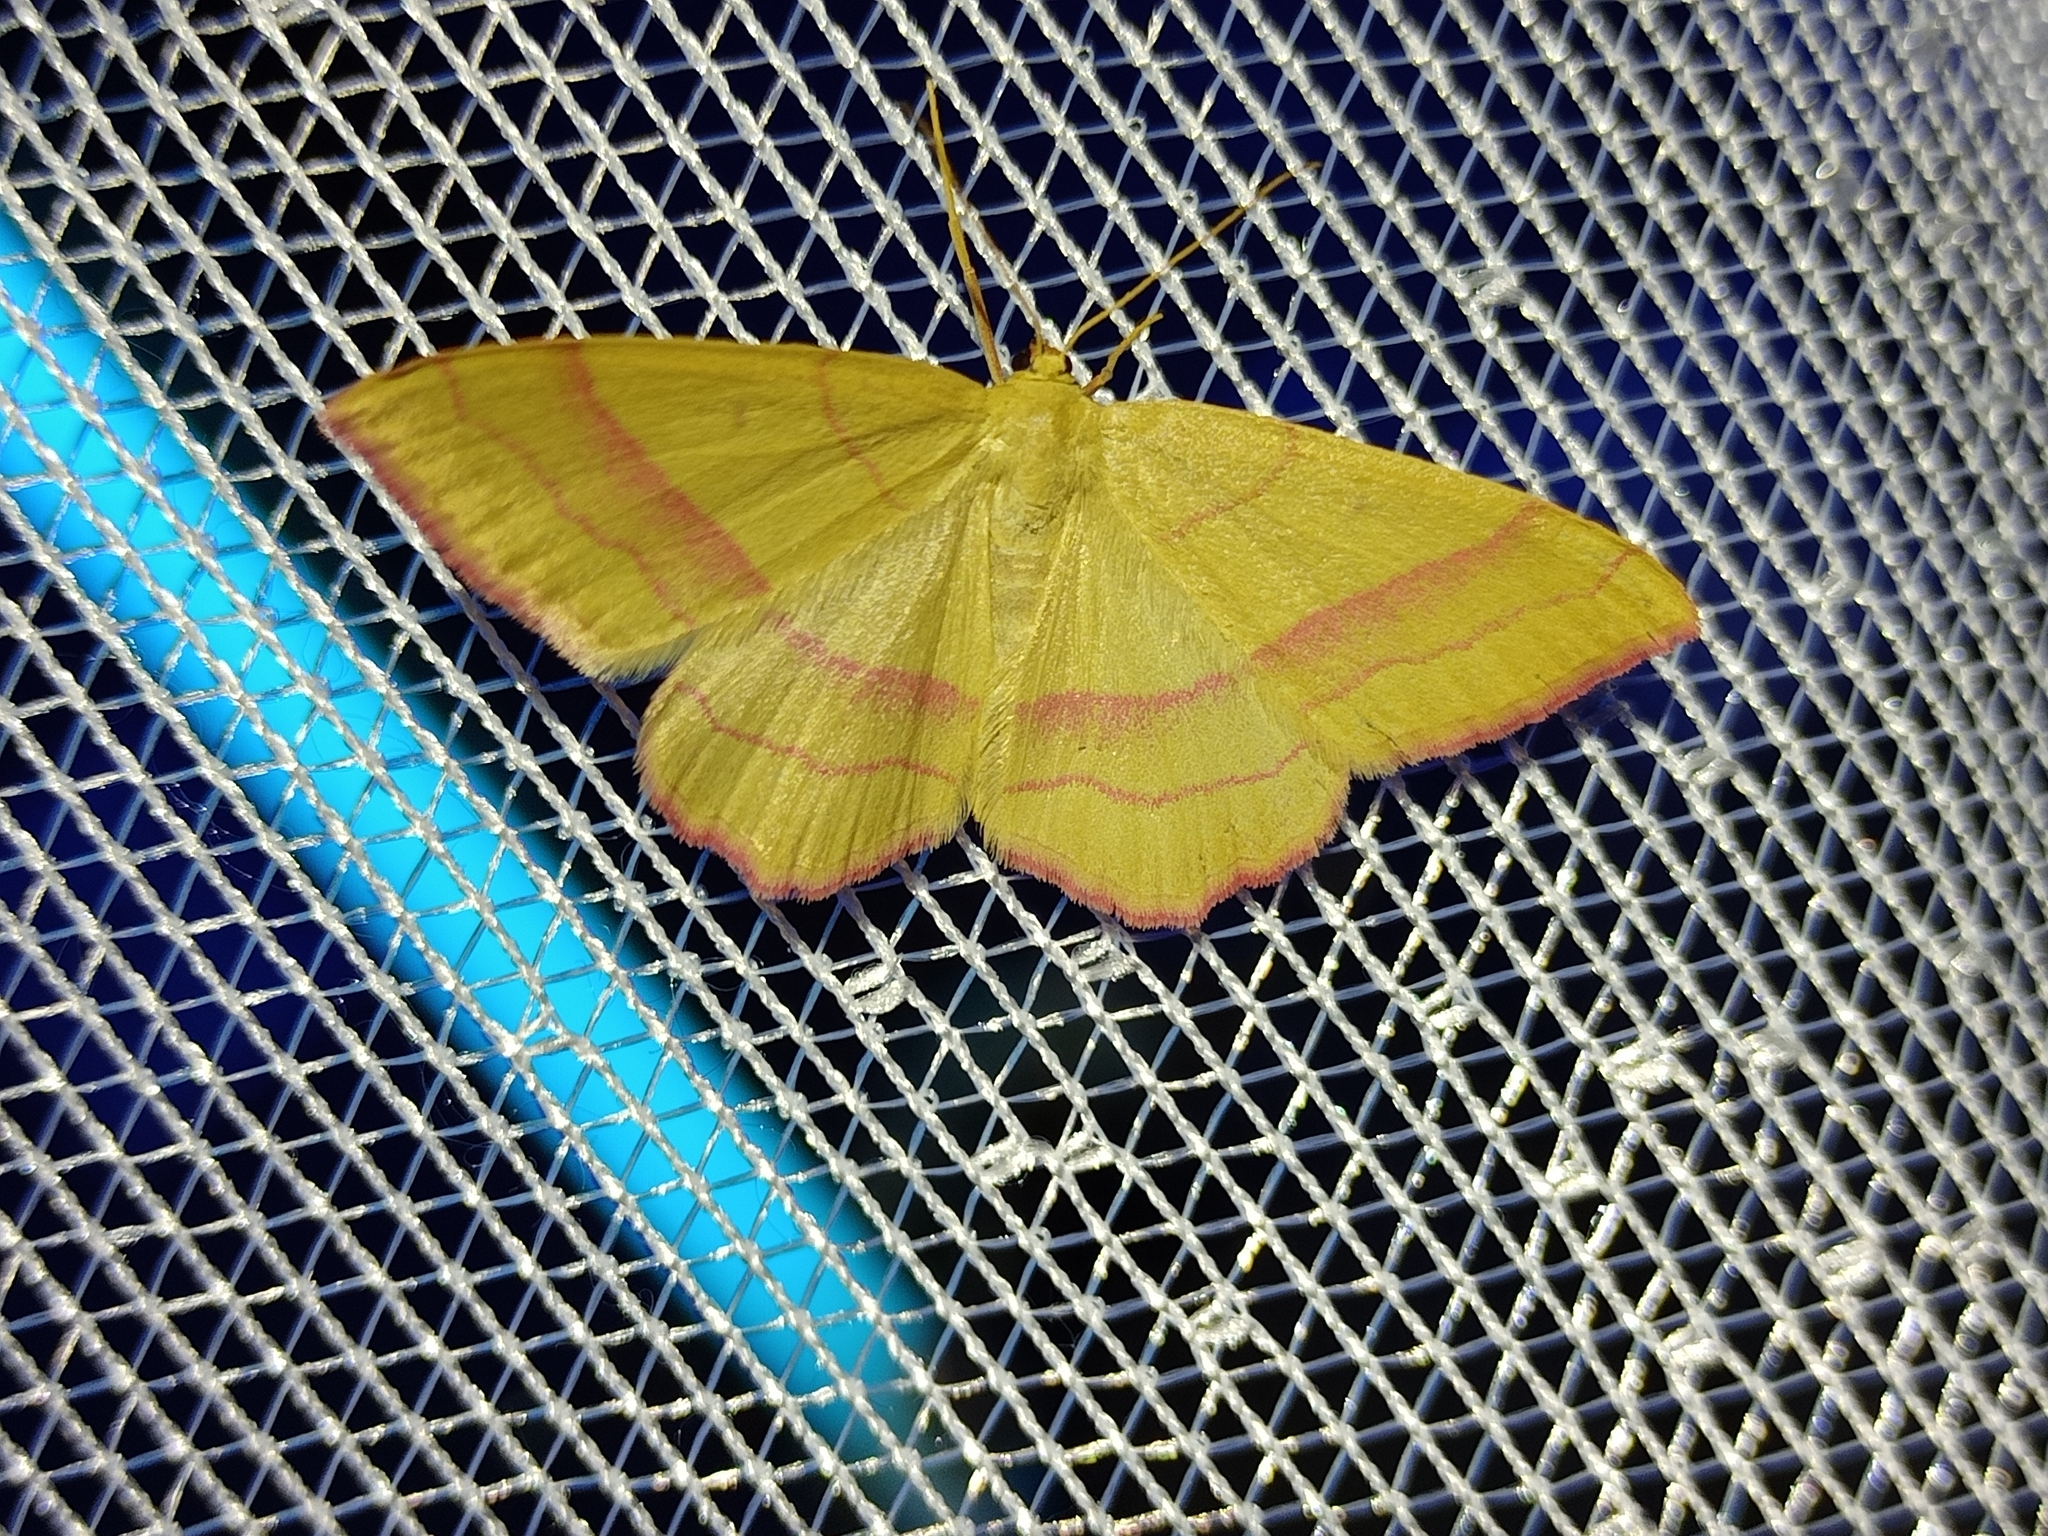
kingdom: Animalia
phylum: Arthropoda
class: Insecta
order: Lepidoptera
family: Geometridae
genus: Rhodostrophia
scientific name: Rhodostrophia vibicaria
